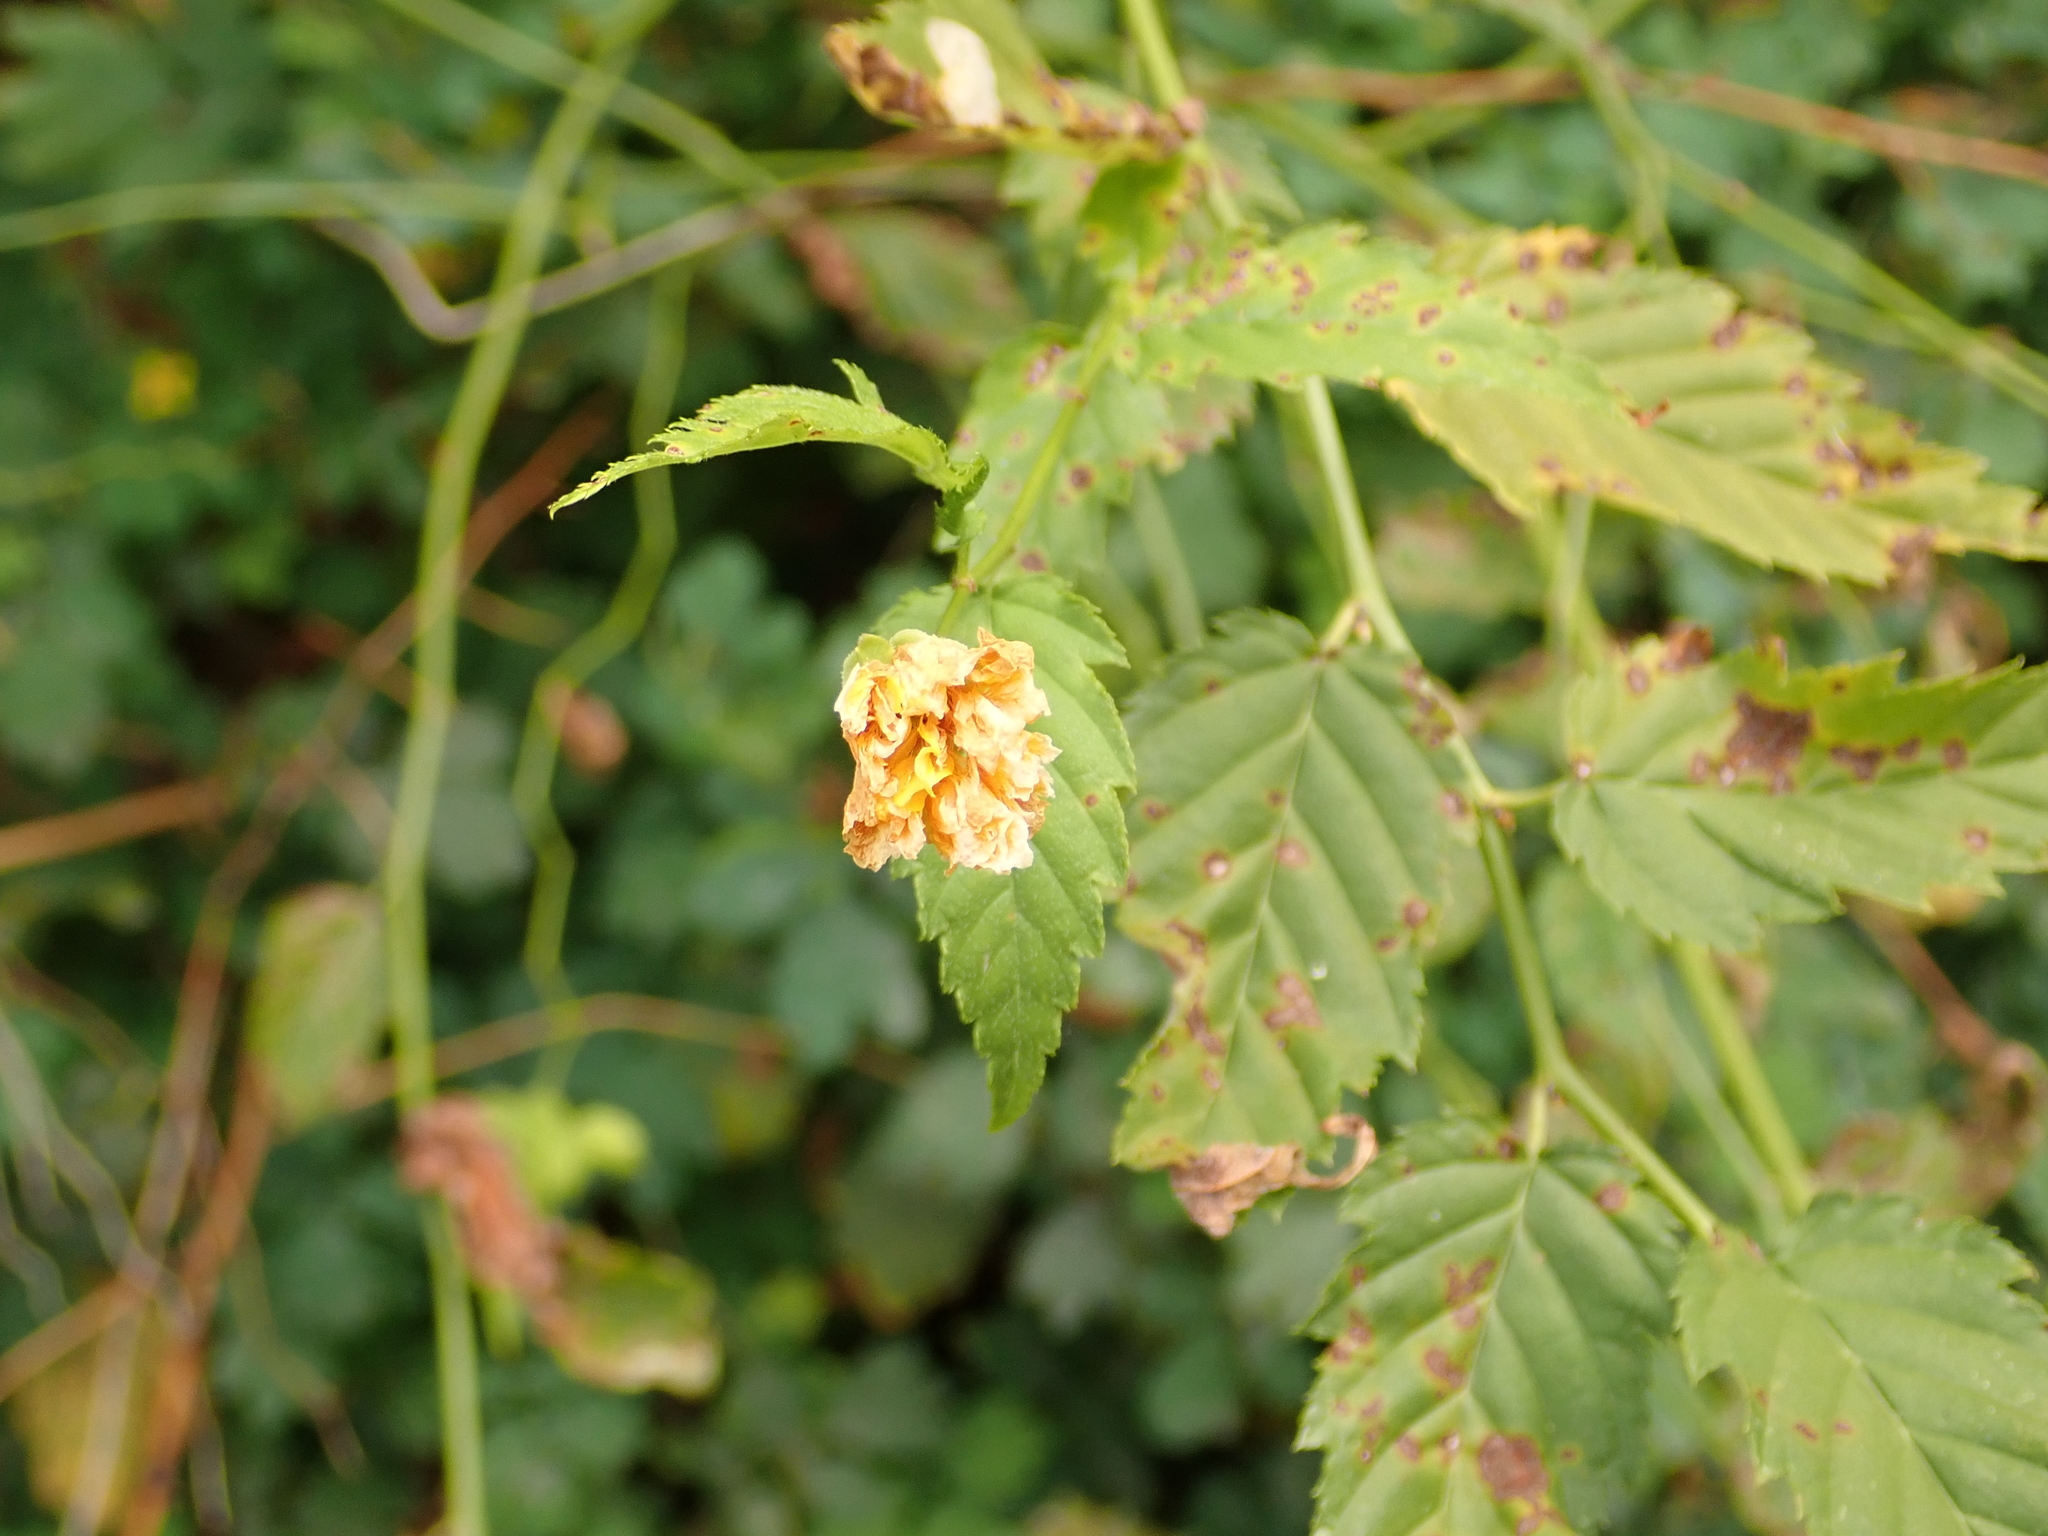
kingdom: Plantae
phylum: Tracheophyta
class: Magnoliopsida
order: Rosales
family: Rosaceae
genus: Kerria
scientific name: Kerria japonica
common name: Japanese kerria
